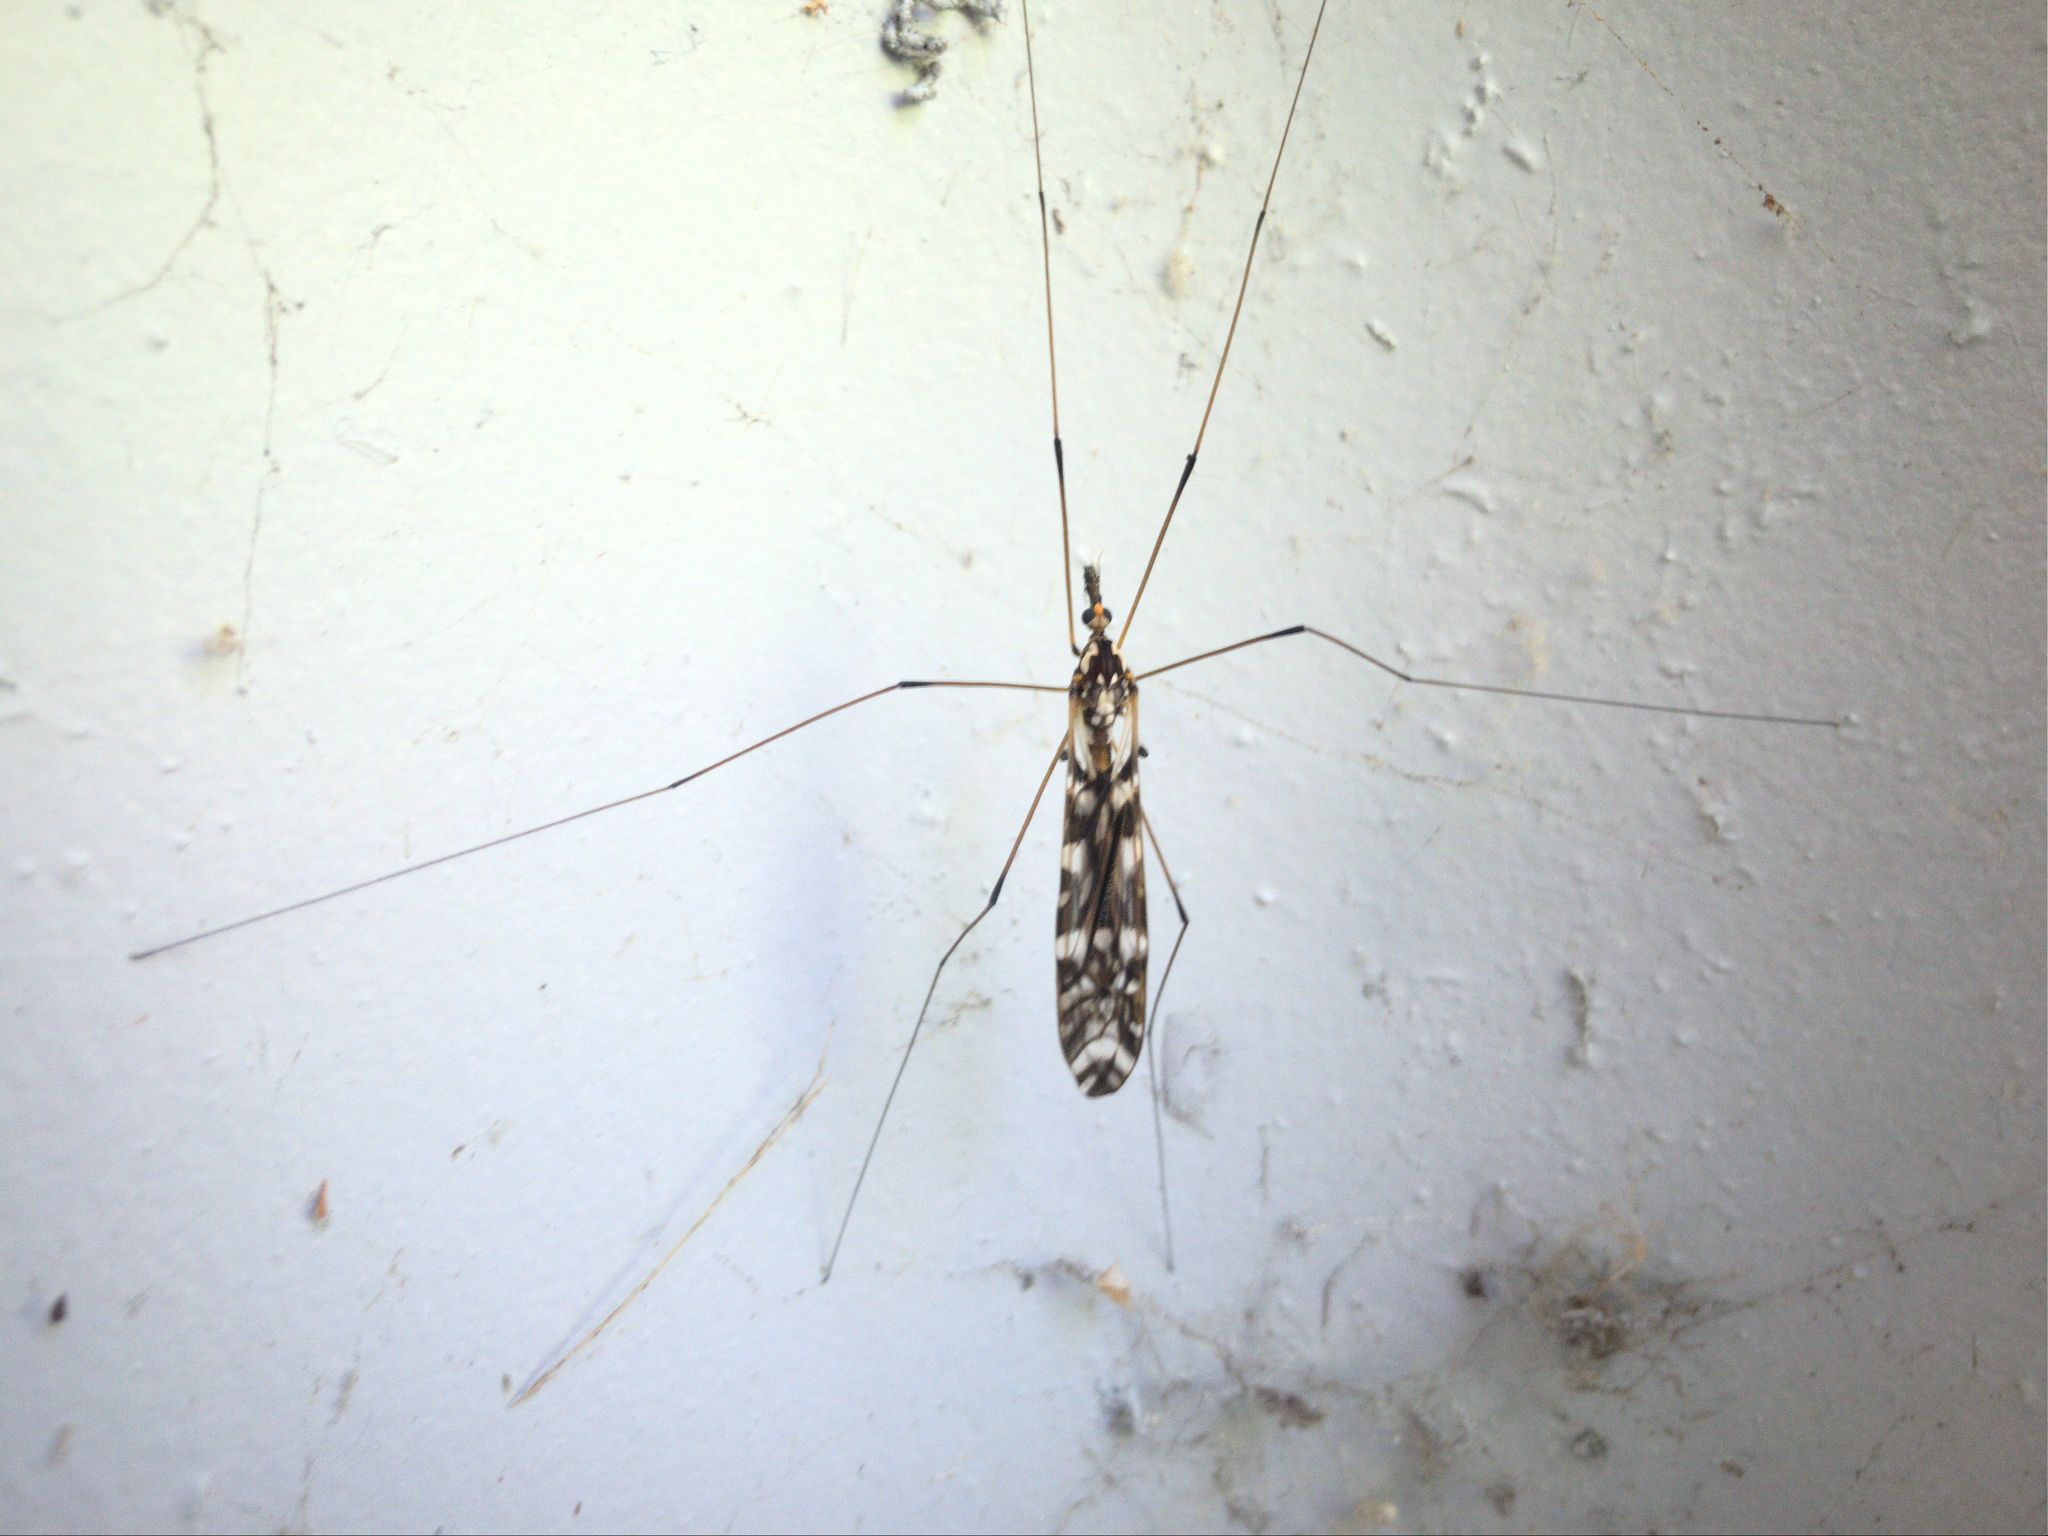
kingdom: Animalia
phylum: Arthropoda
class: Insecta
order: Diptera
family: Tipulidae
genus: Ischnotoma
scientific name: Ischnotoma eburnea
